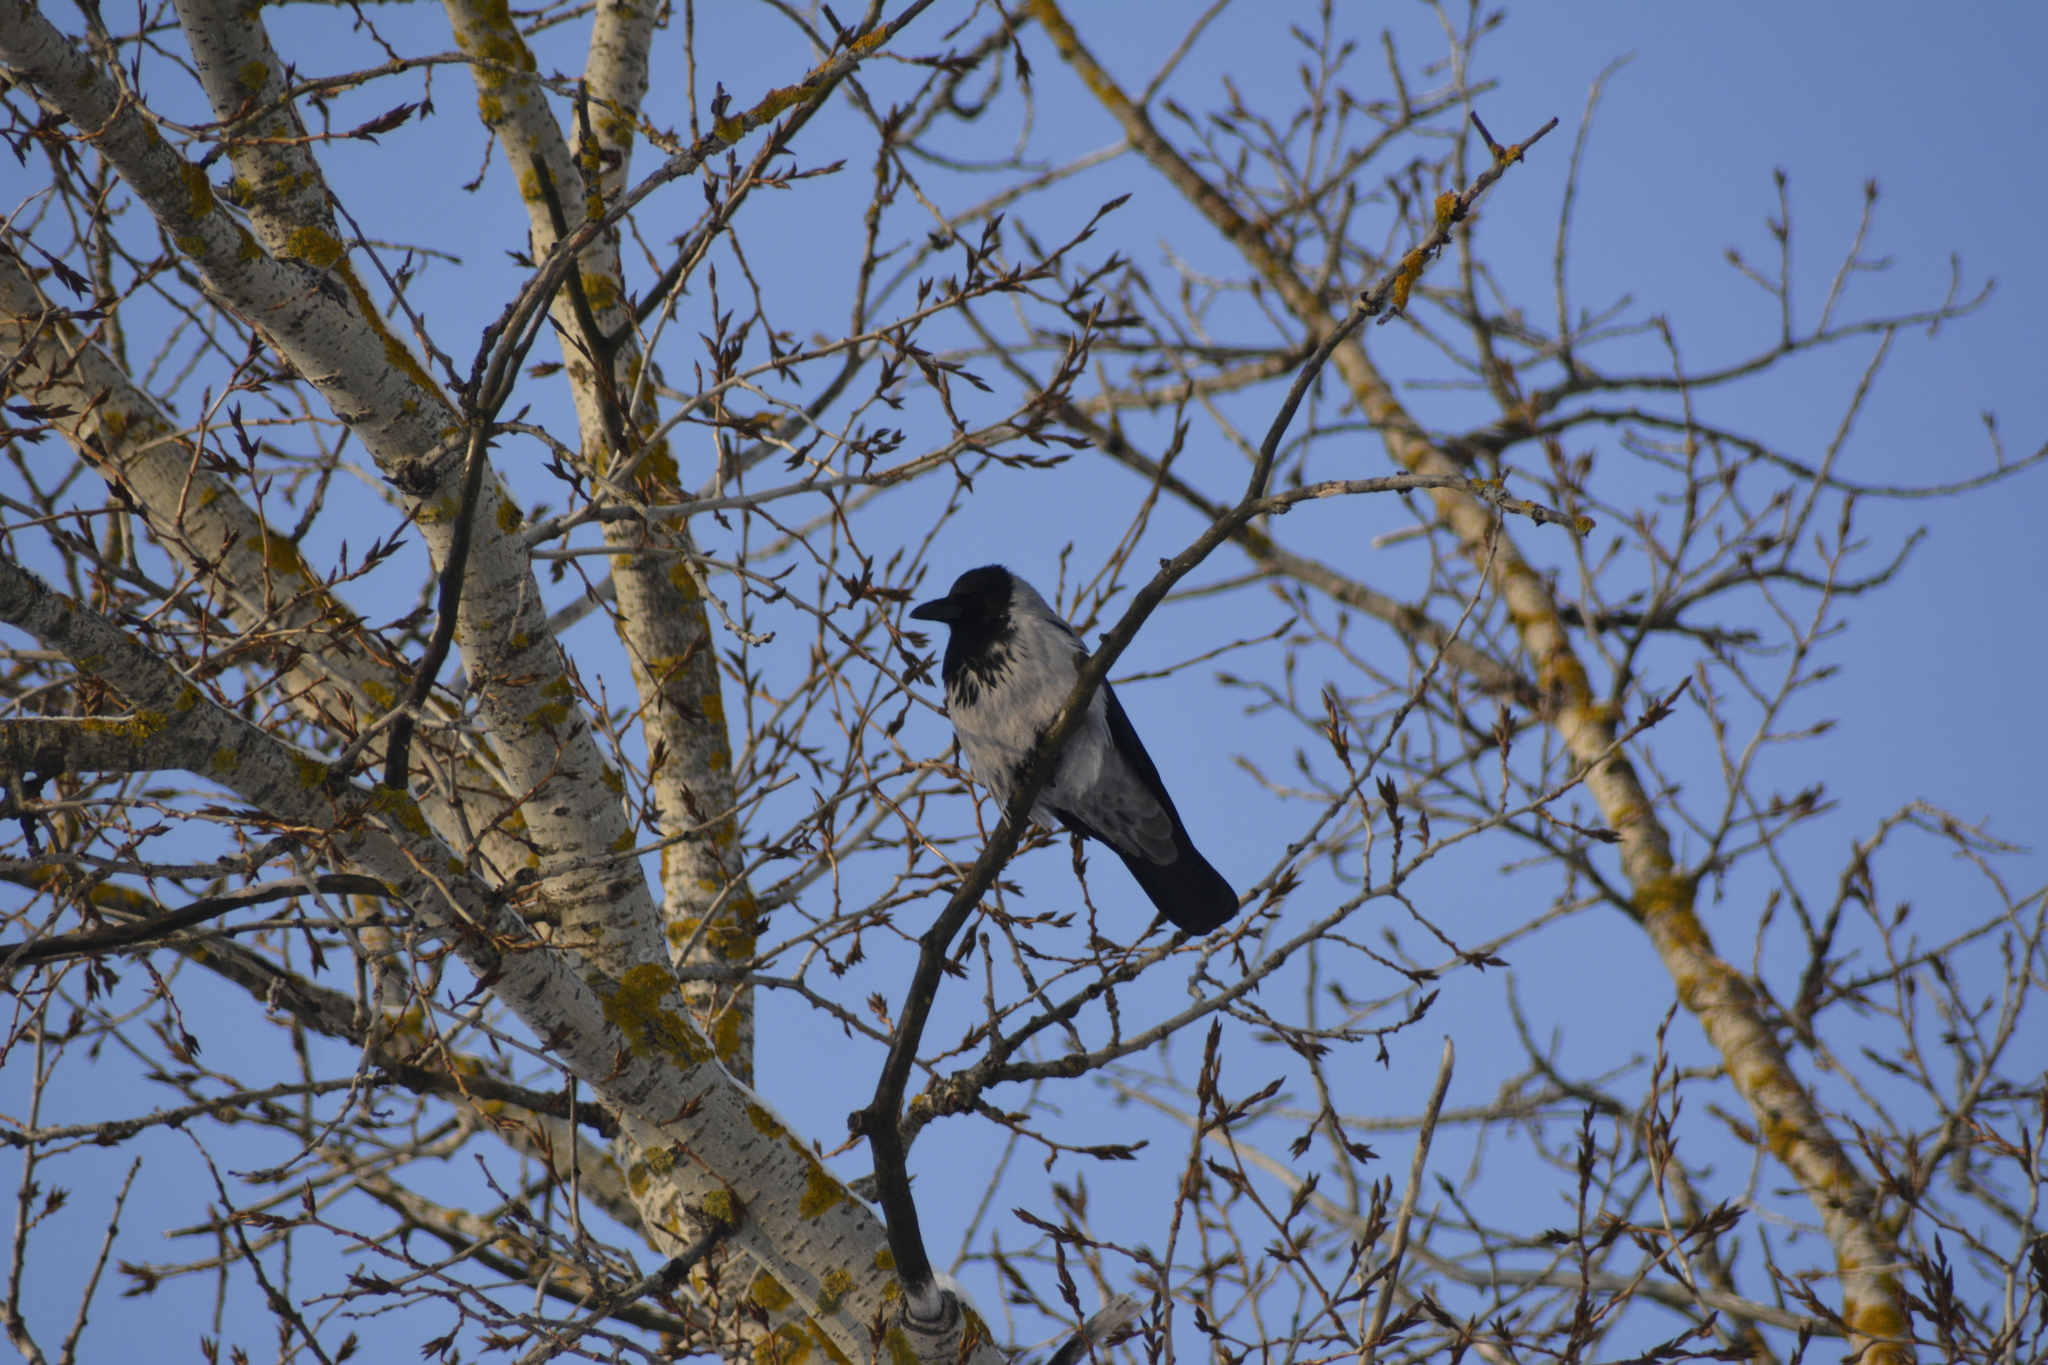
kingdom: Animalia
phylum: Chordata
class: Aves
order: Passeriformes
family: Corvidae
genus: Corvus
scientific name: Corvus cornix
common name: Hooded crow
